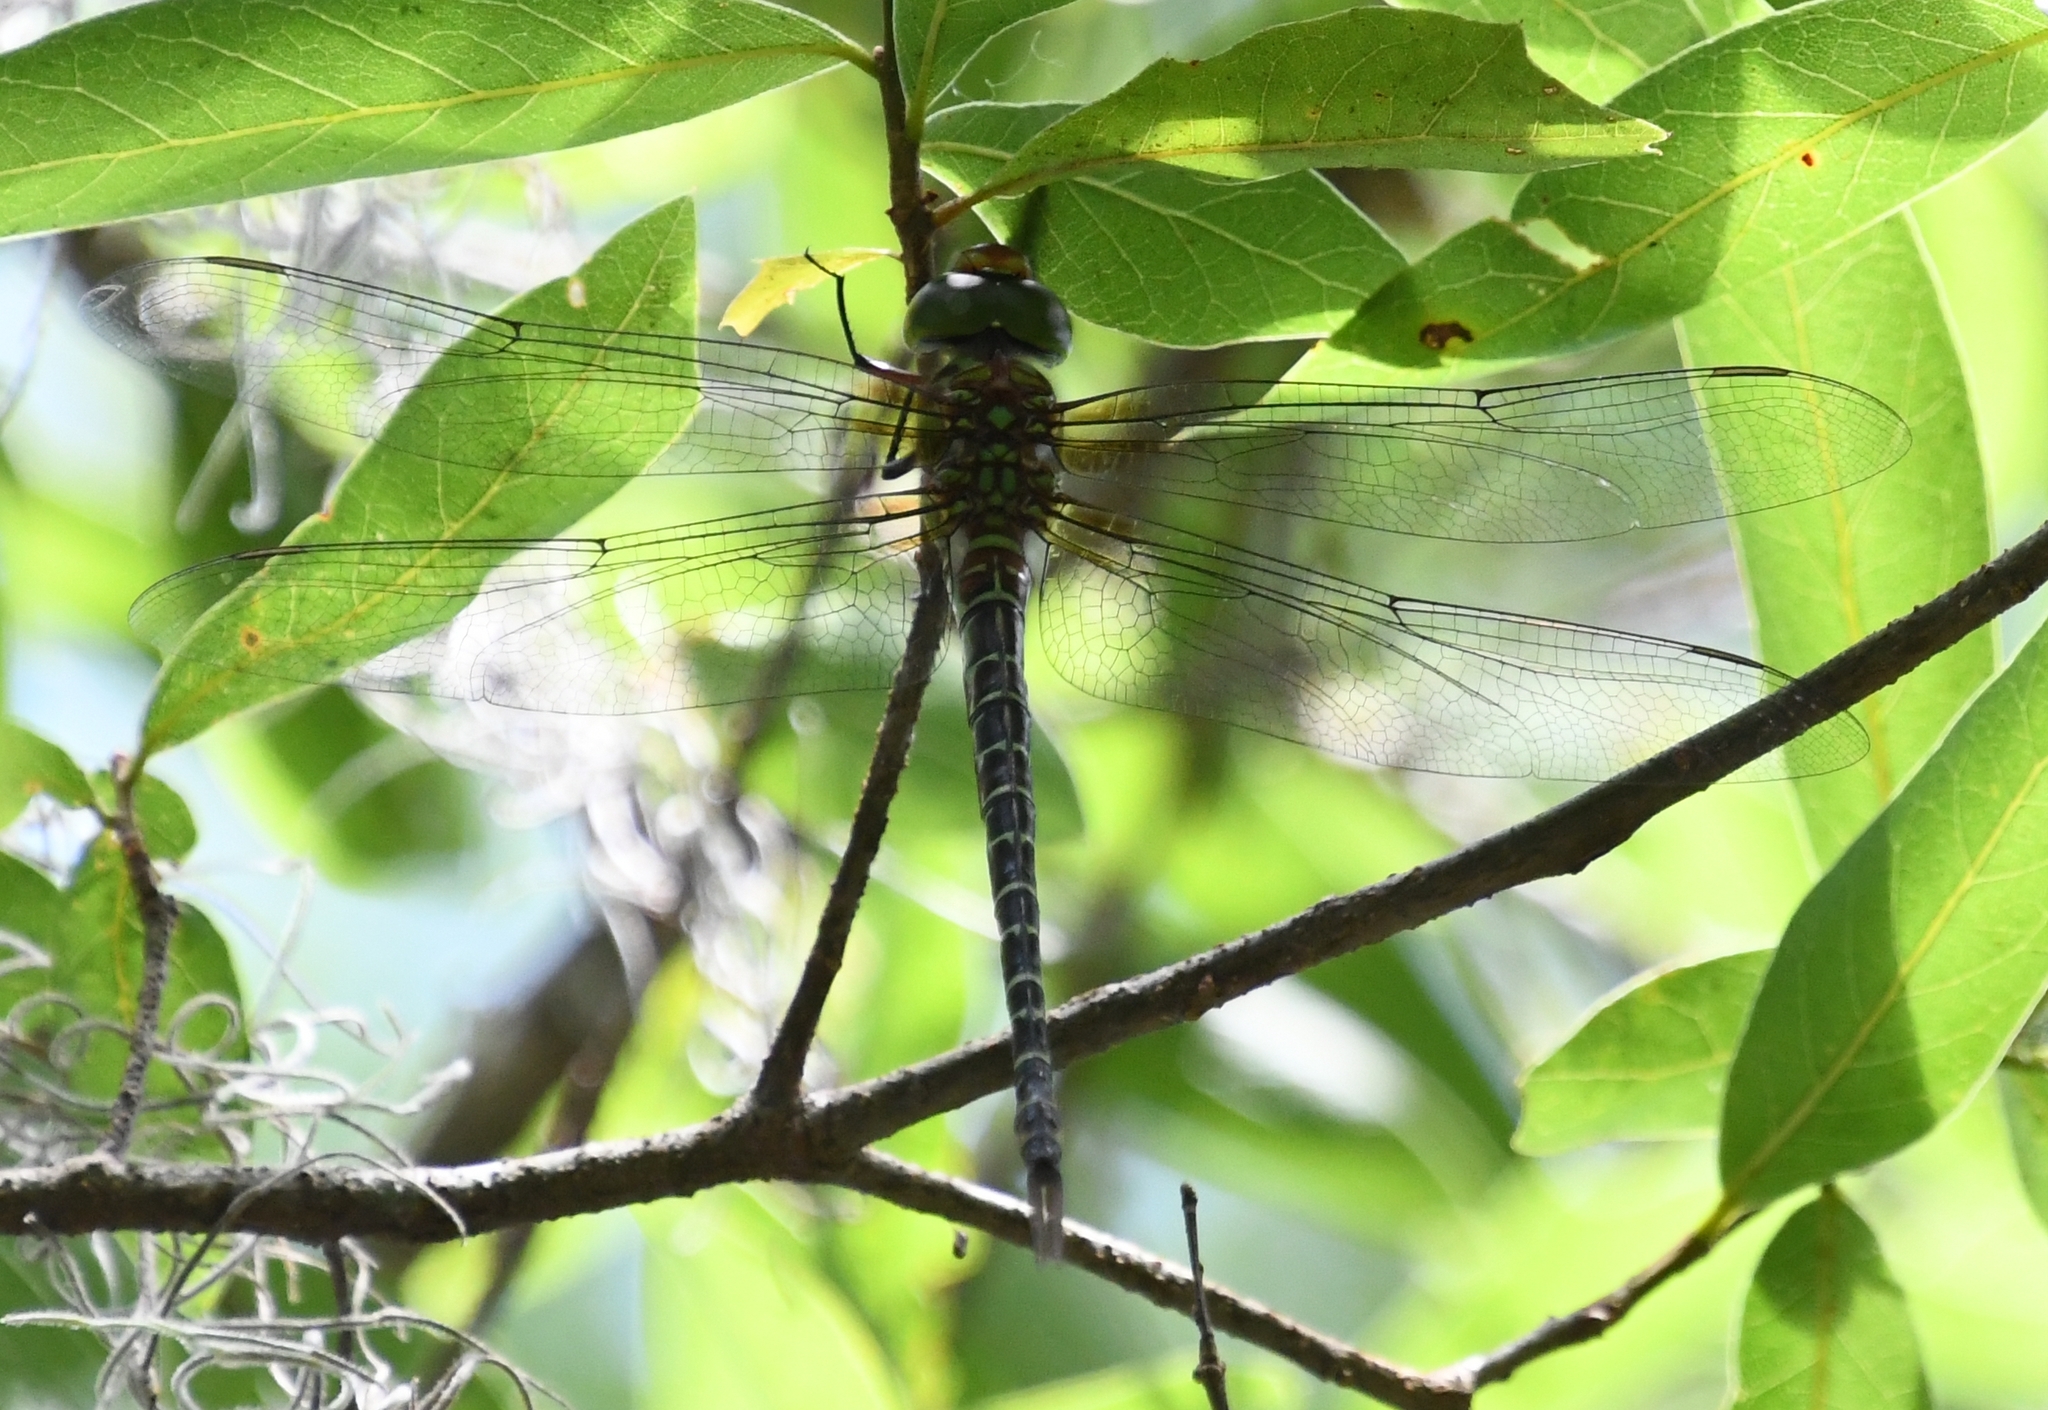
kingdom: Animalia
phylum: Arthropoda
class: Insecta
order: Odonata
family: Aeshnidae
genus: Coryphaeschna
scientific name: Coryphaeschna ingens
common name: Regal darner
